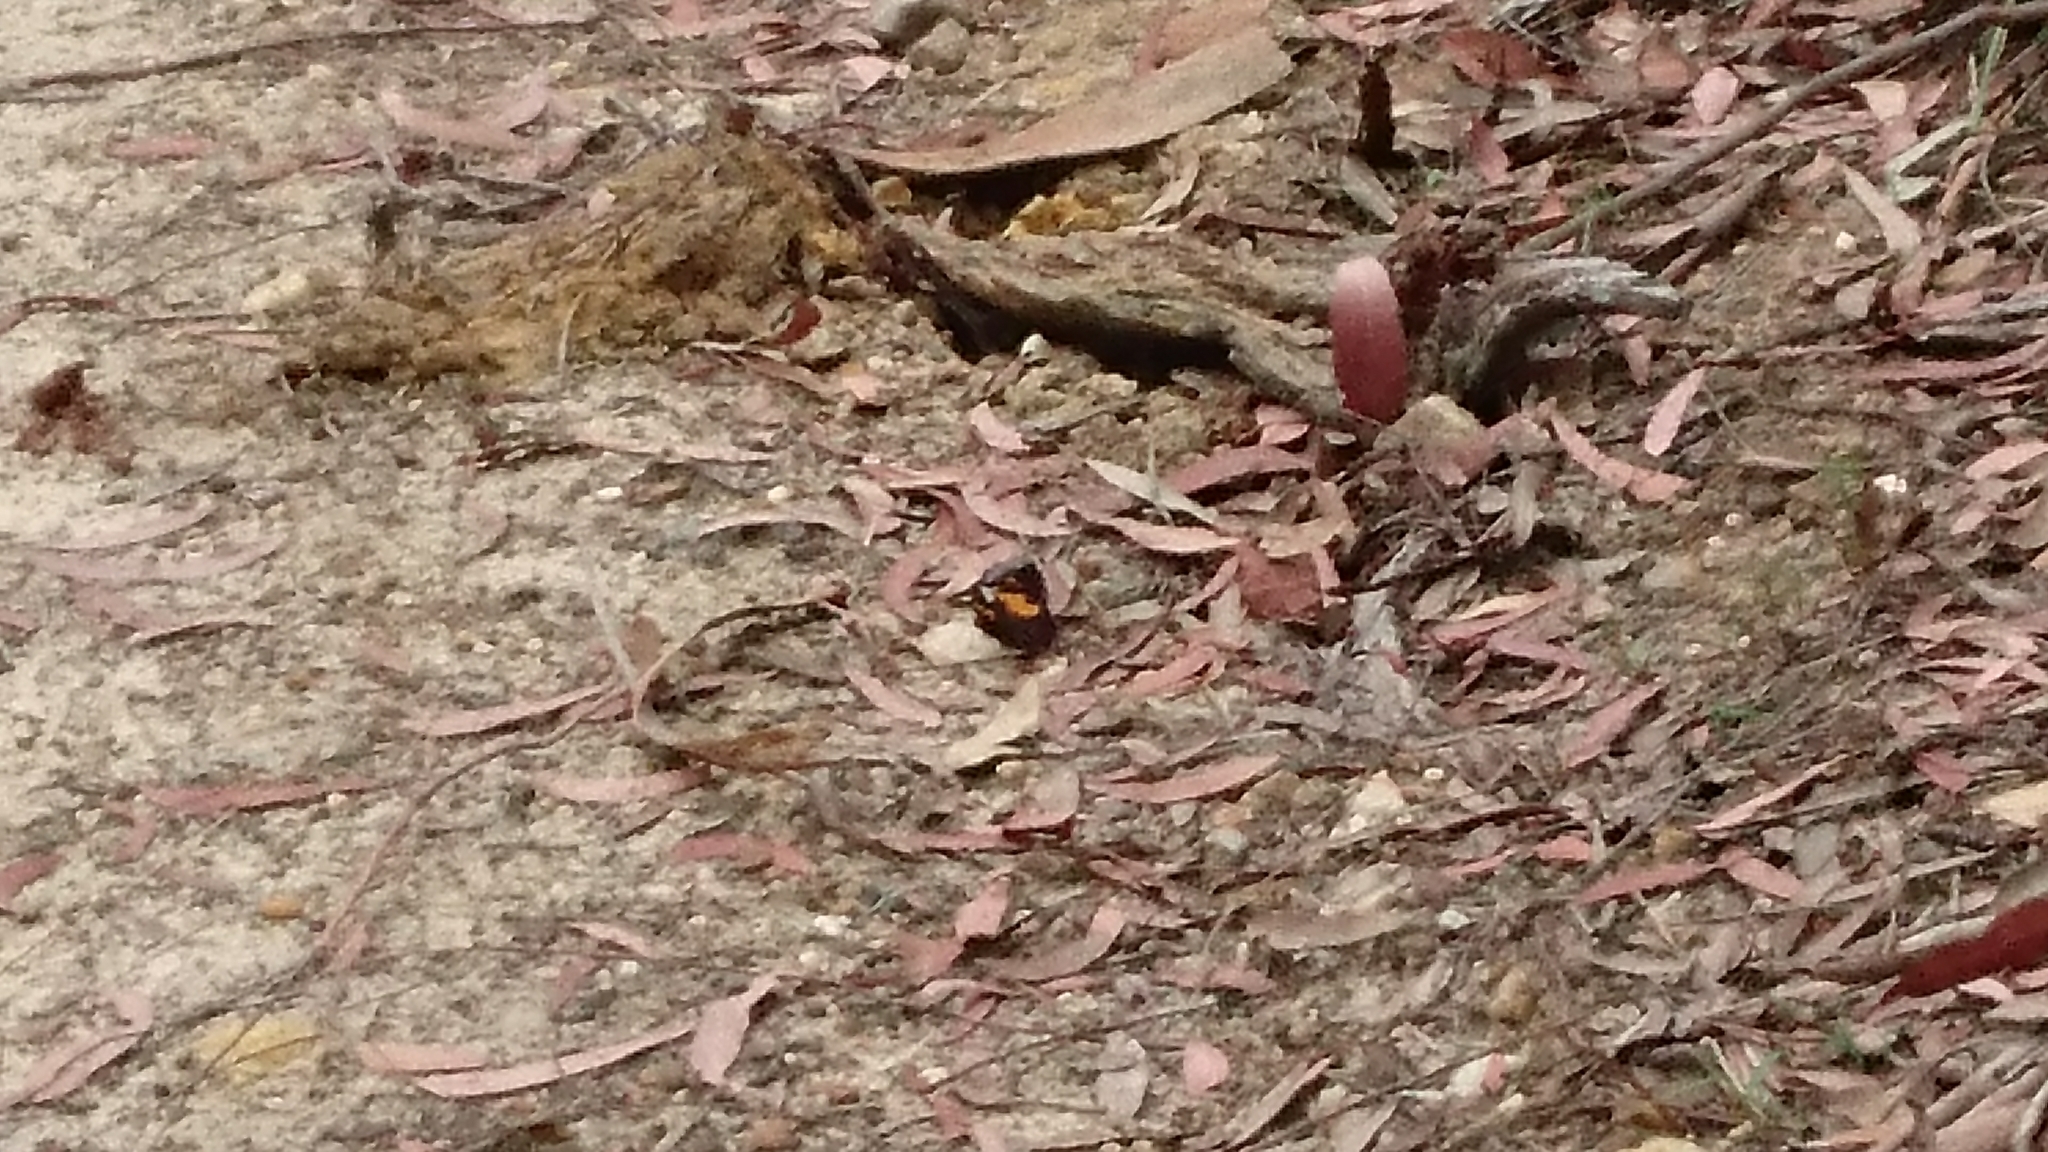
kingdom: Animalia
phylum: Arthropoda
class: Insecta
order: Lepidoptera
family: Nymphalidae
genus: Tisiphone
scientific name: Tisiphone abeona
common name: Swordgrass brown
